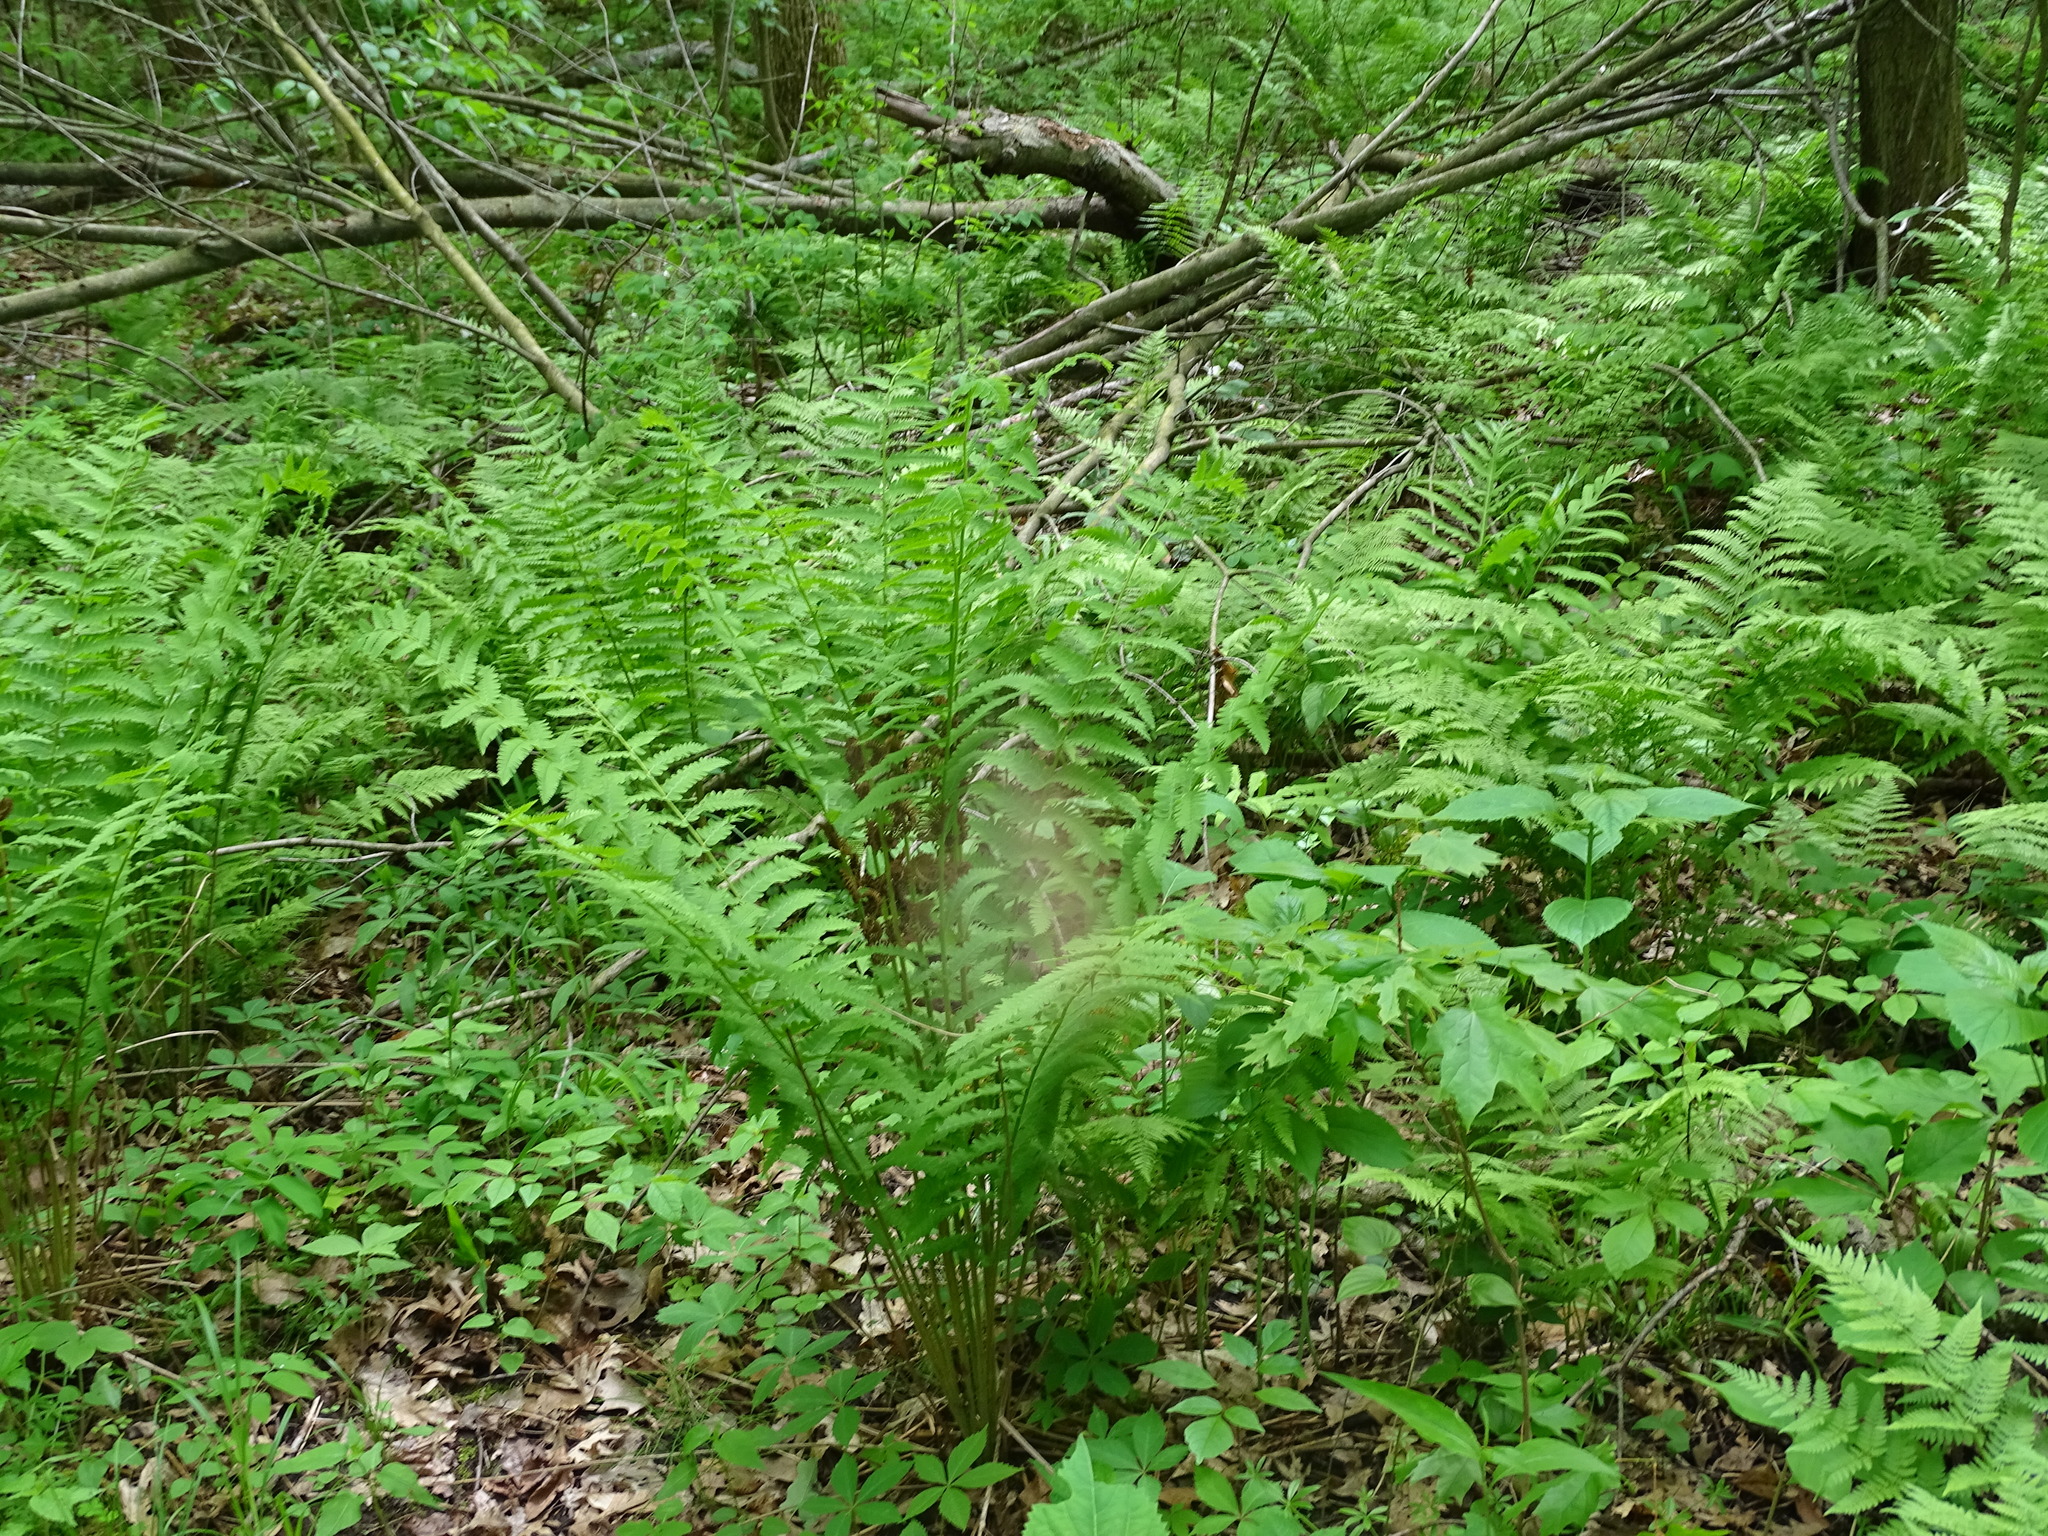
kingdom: Plantae
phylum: Tracheophyta
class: Polypodiopsida
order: Osmundales
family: Osmundaceae
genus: Claytosmunda
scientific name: Claytosmunda claytoniana
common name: Clayton's fern
